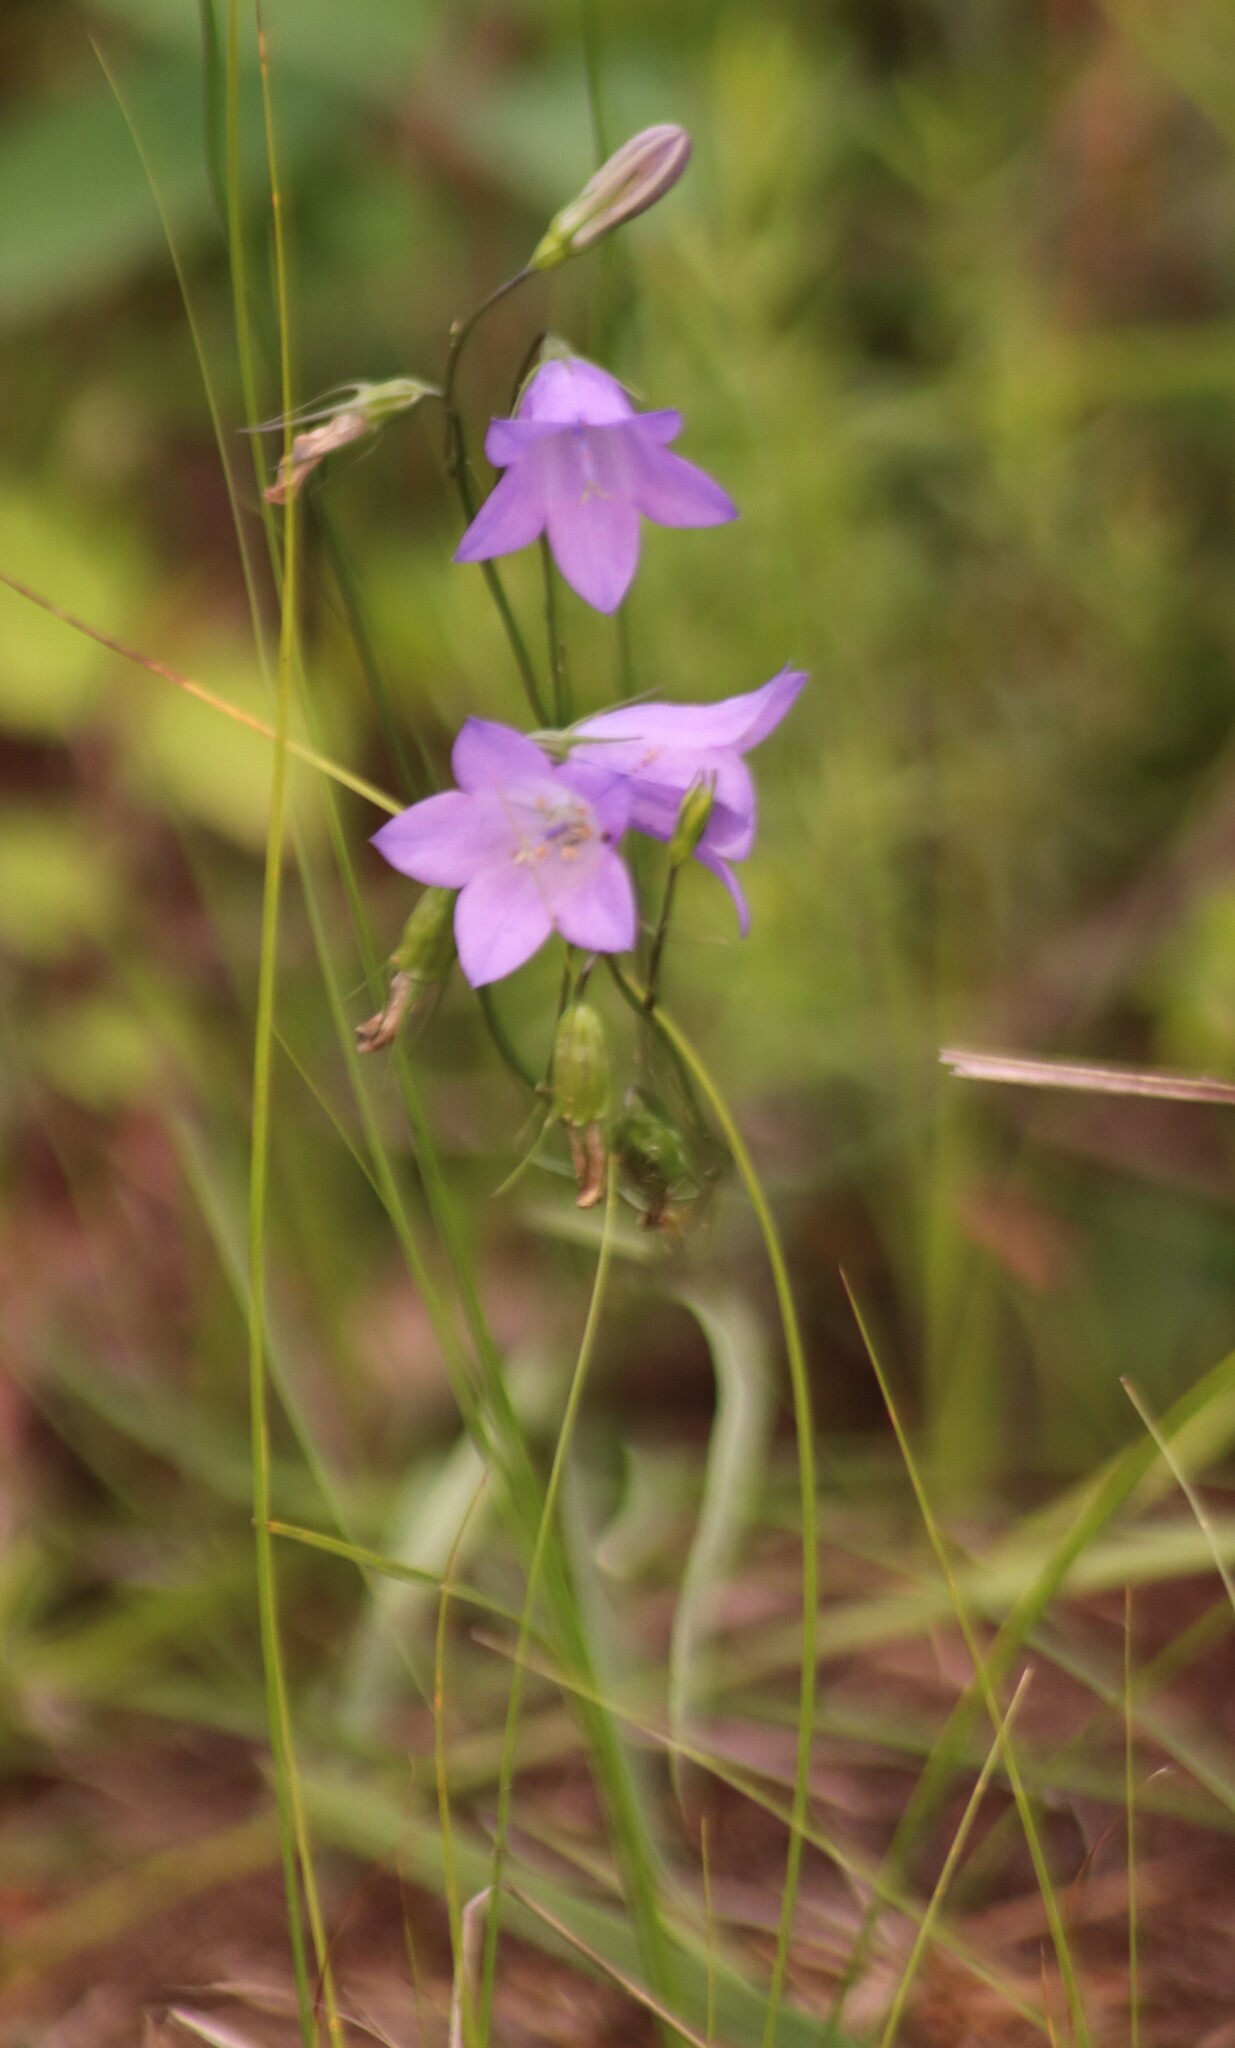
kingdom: Plantae
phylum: Tracheophyta
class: Magnoliopsida
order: Asterales
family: Campanulaceae
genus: Campanula
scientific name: Campanula alaskana
